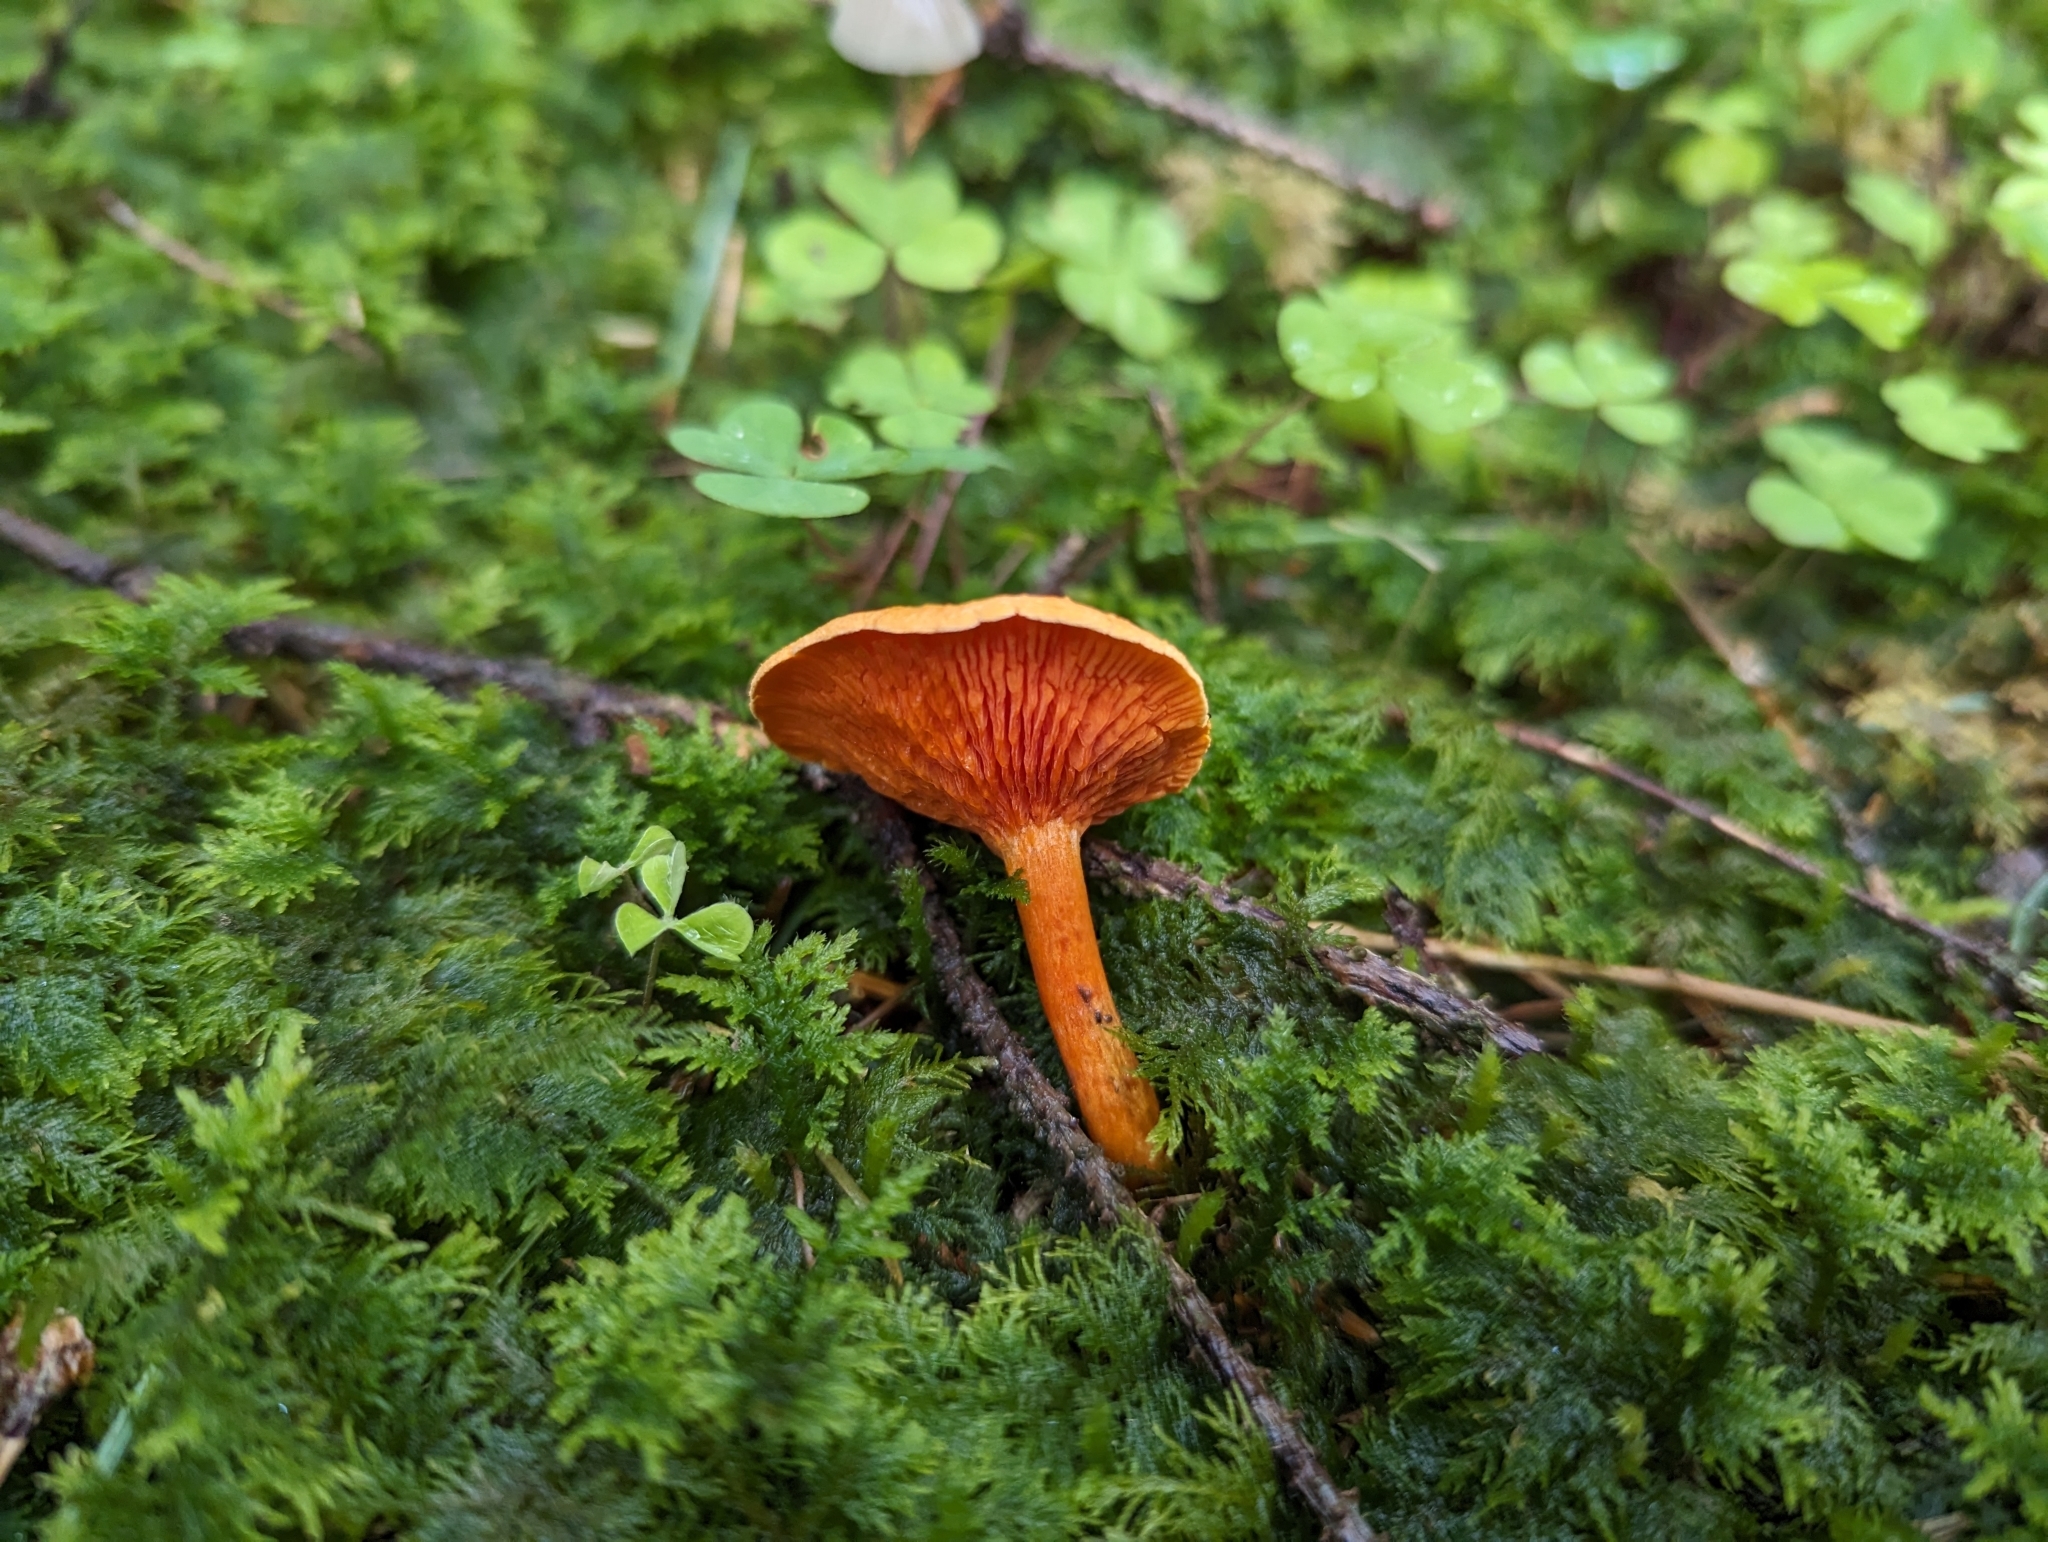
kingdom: Fungi
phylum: Basidiomycota
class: Agaricomycetes
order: Boletales
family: Hygrophoropsidaceae
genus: Hygrophoropsis
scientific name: Hygrophoropsis aurantiaca
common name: False chanterelle
